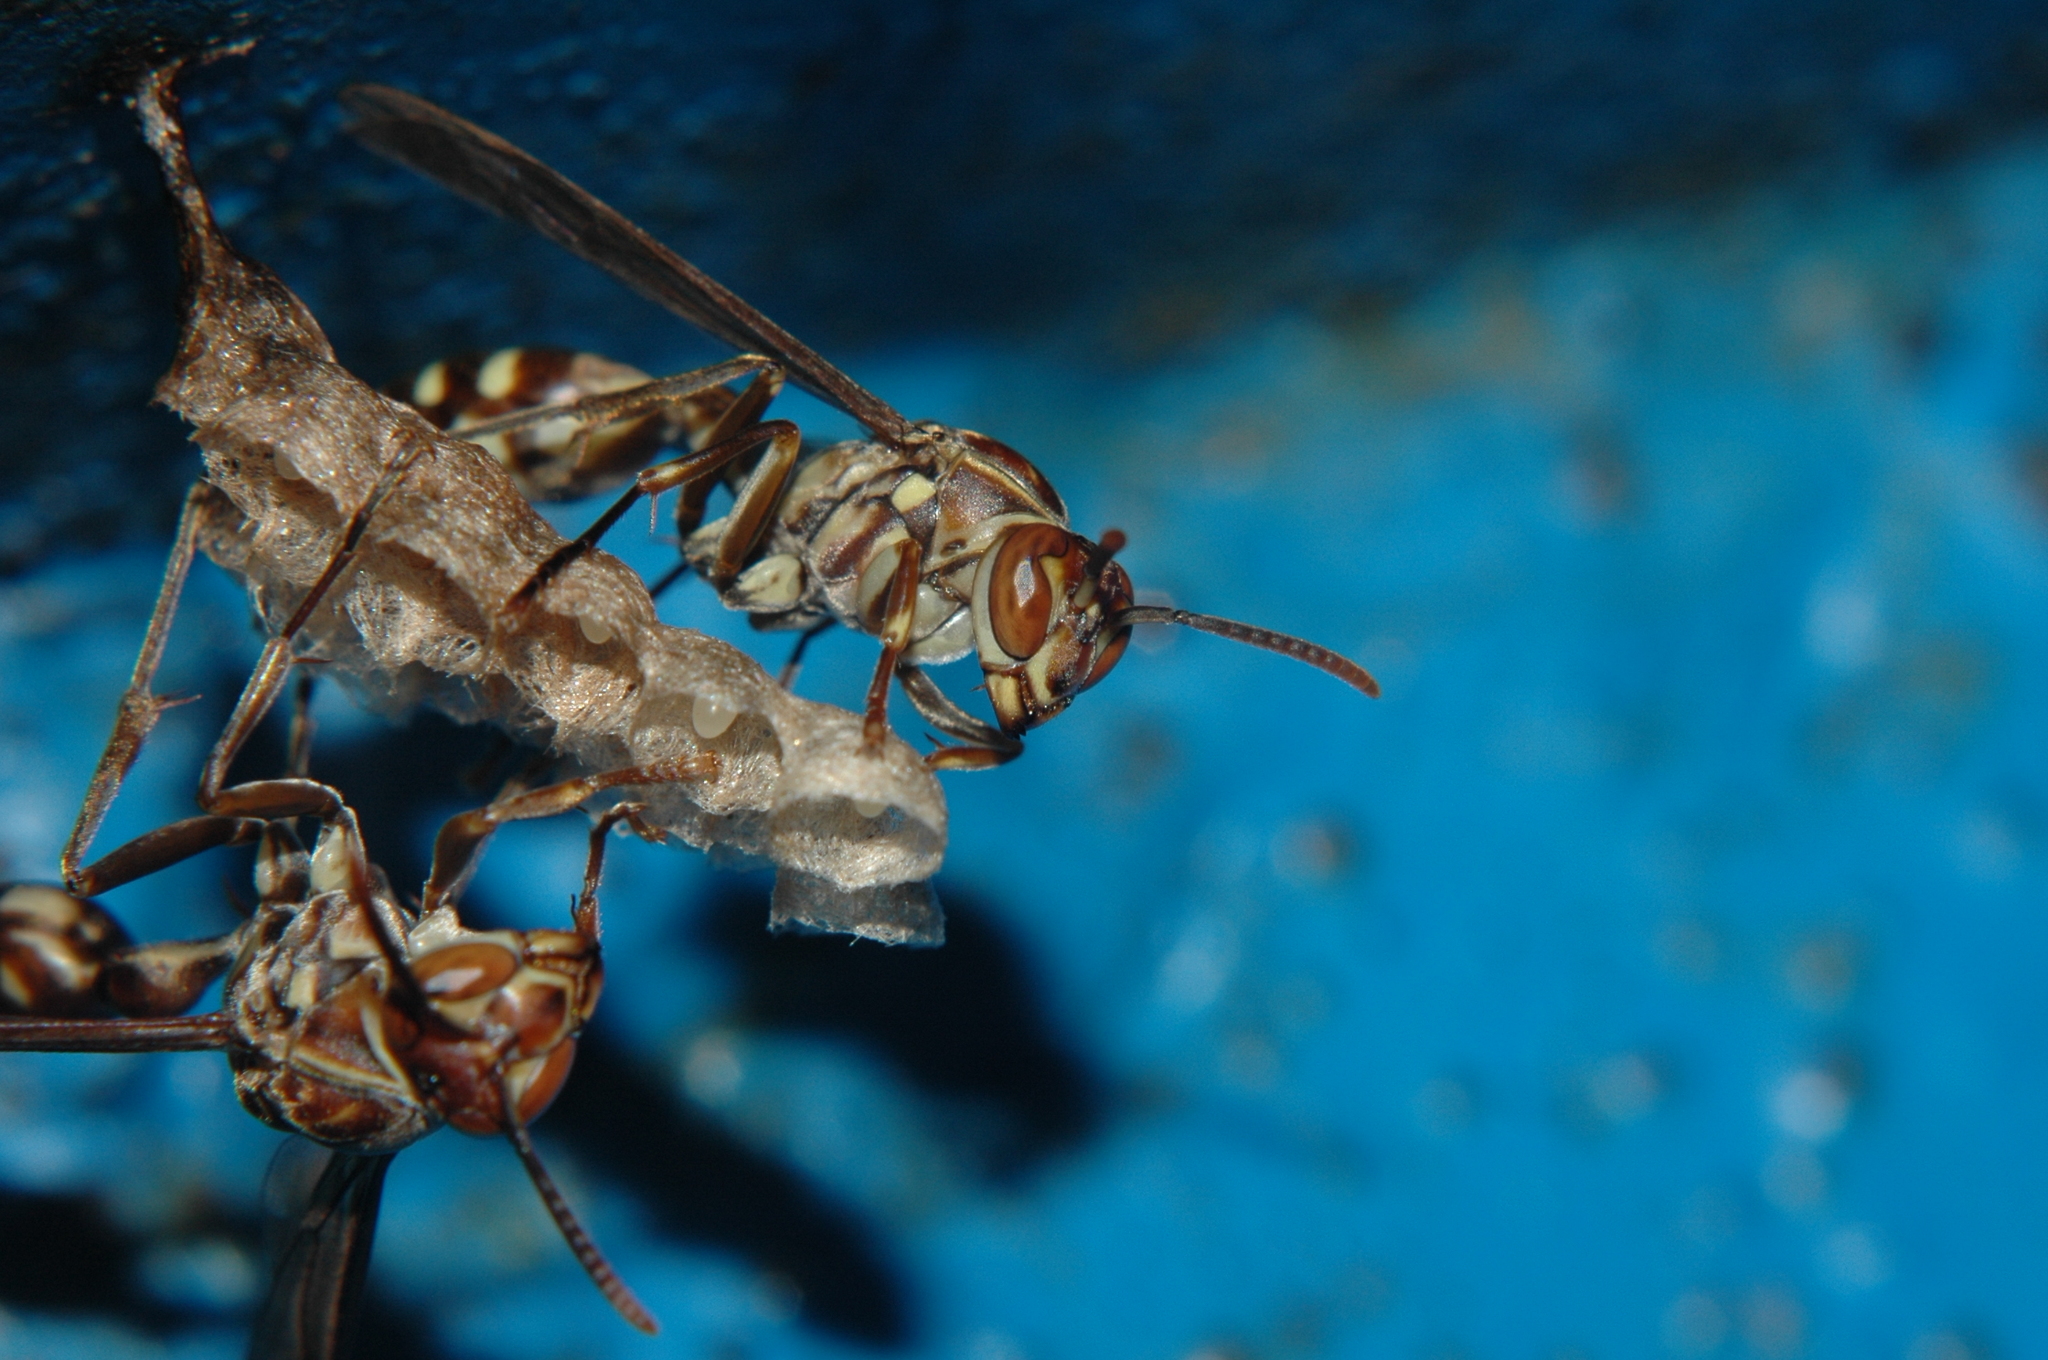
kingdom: Animalia
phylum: Arthropoda
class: Insecta
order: Hymenoptera
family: Vespidae
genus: Parapolybia
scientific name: Parapolybia nodosa
